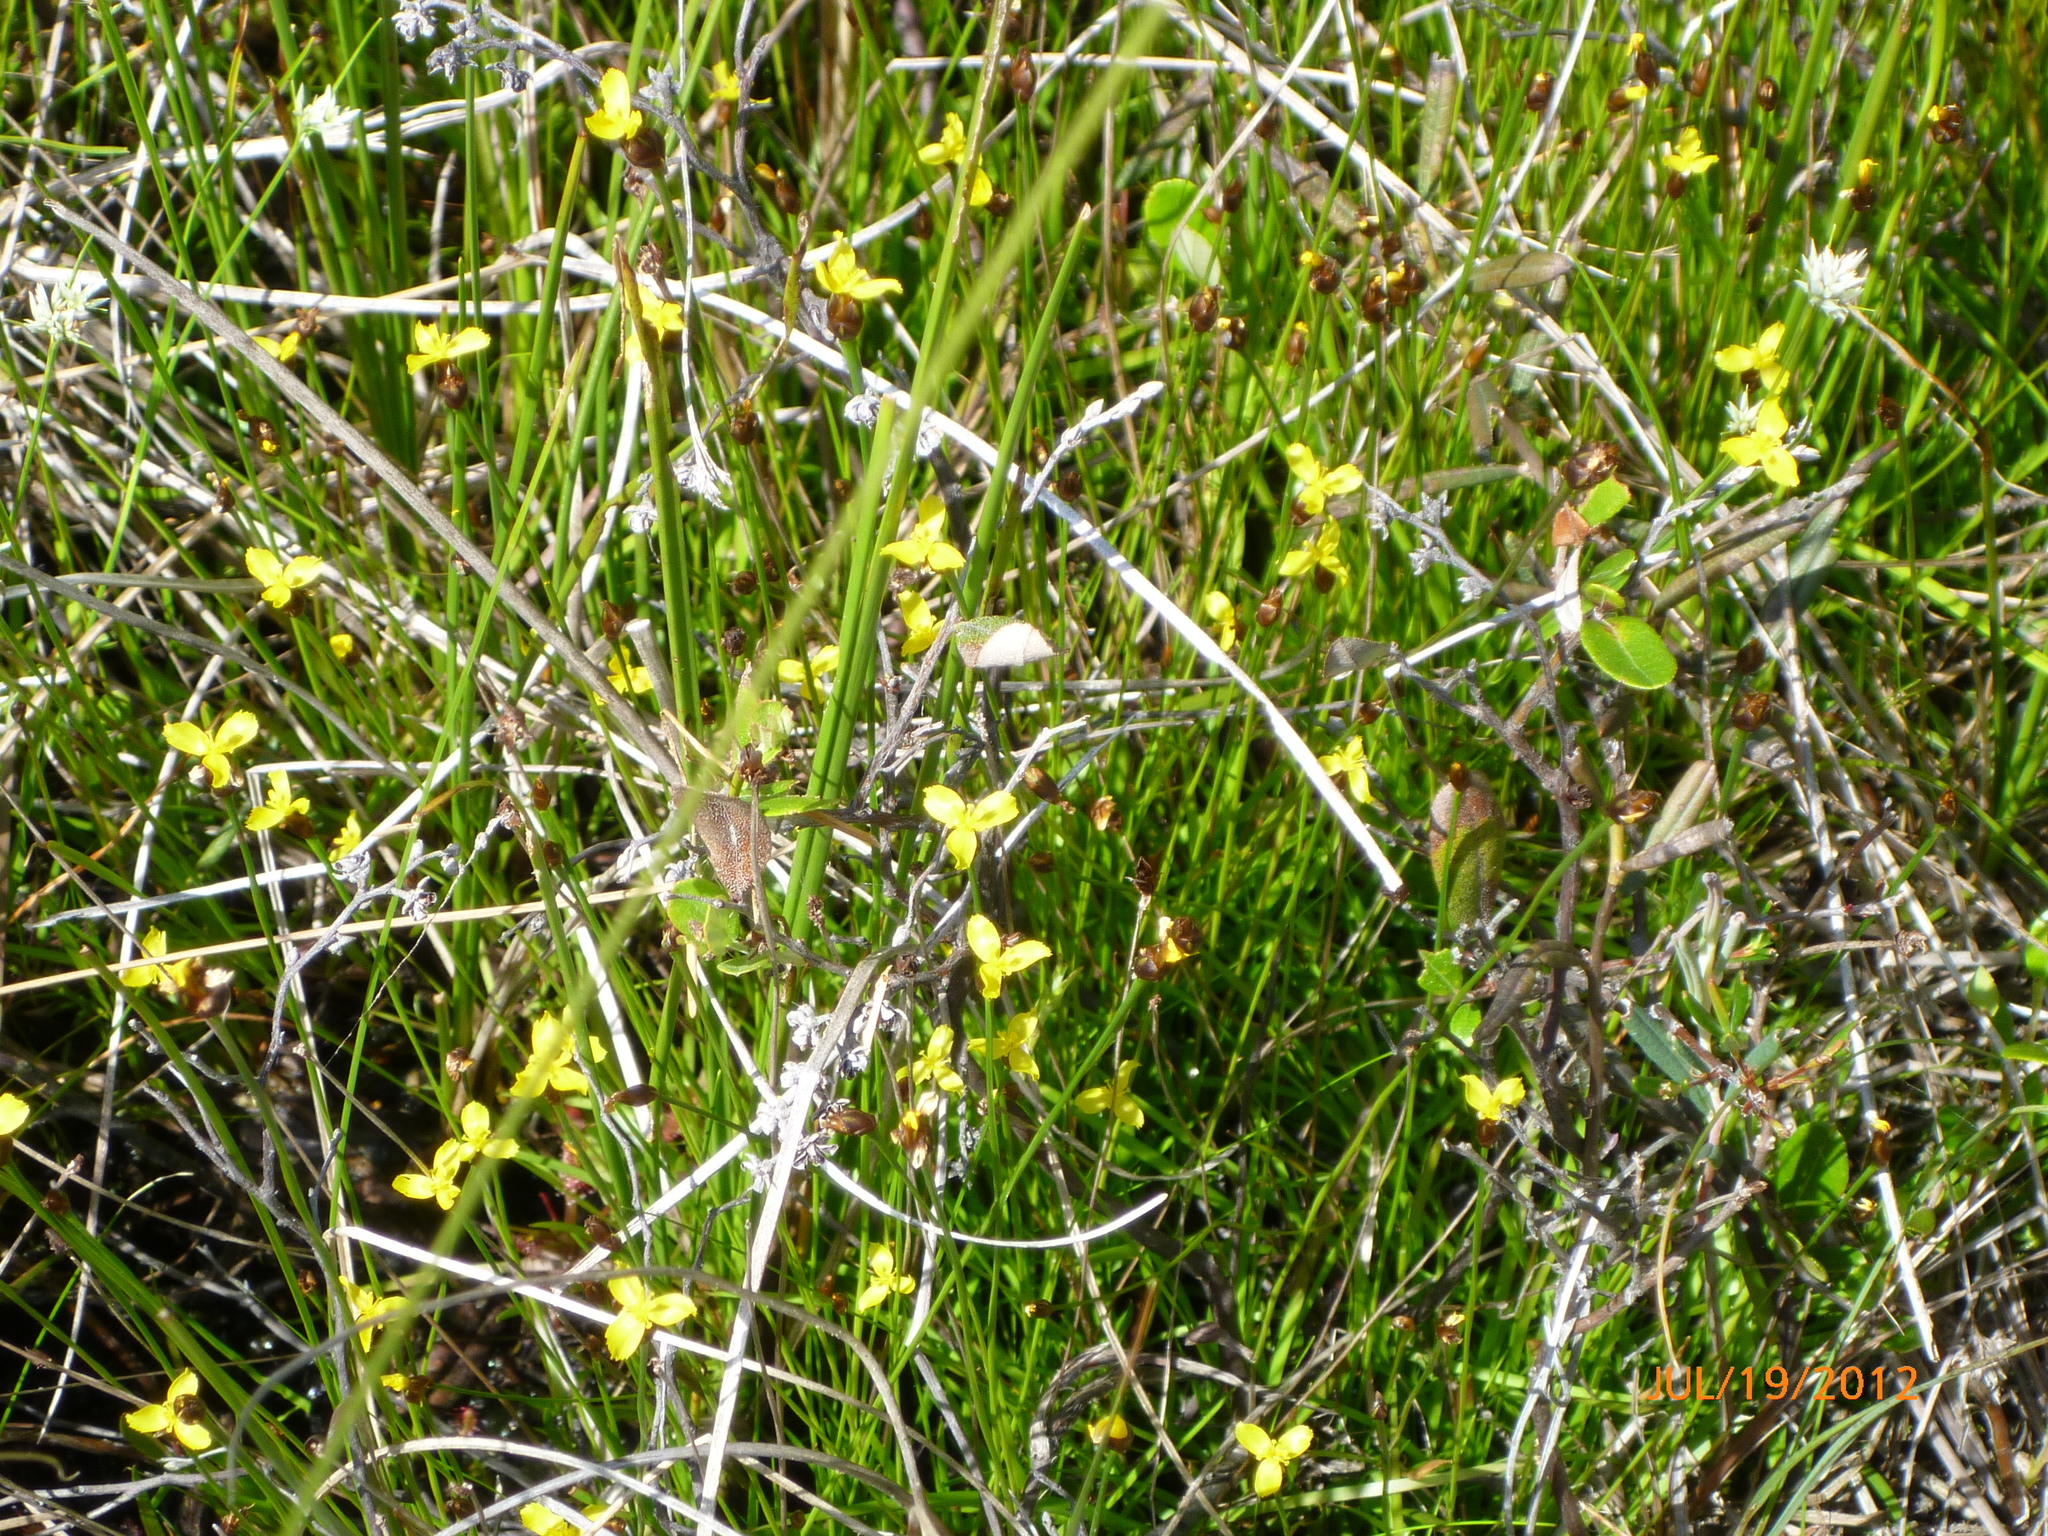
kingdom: Plantae
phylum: Tracheophyta
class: Liliopsida
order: Poales
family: Xyridaceae
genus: Xyris
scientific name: Xyris montana
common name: Northern yellow-eyed-grass
